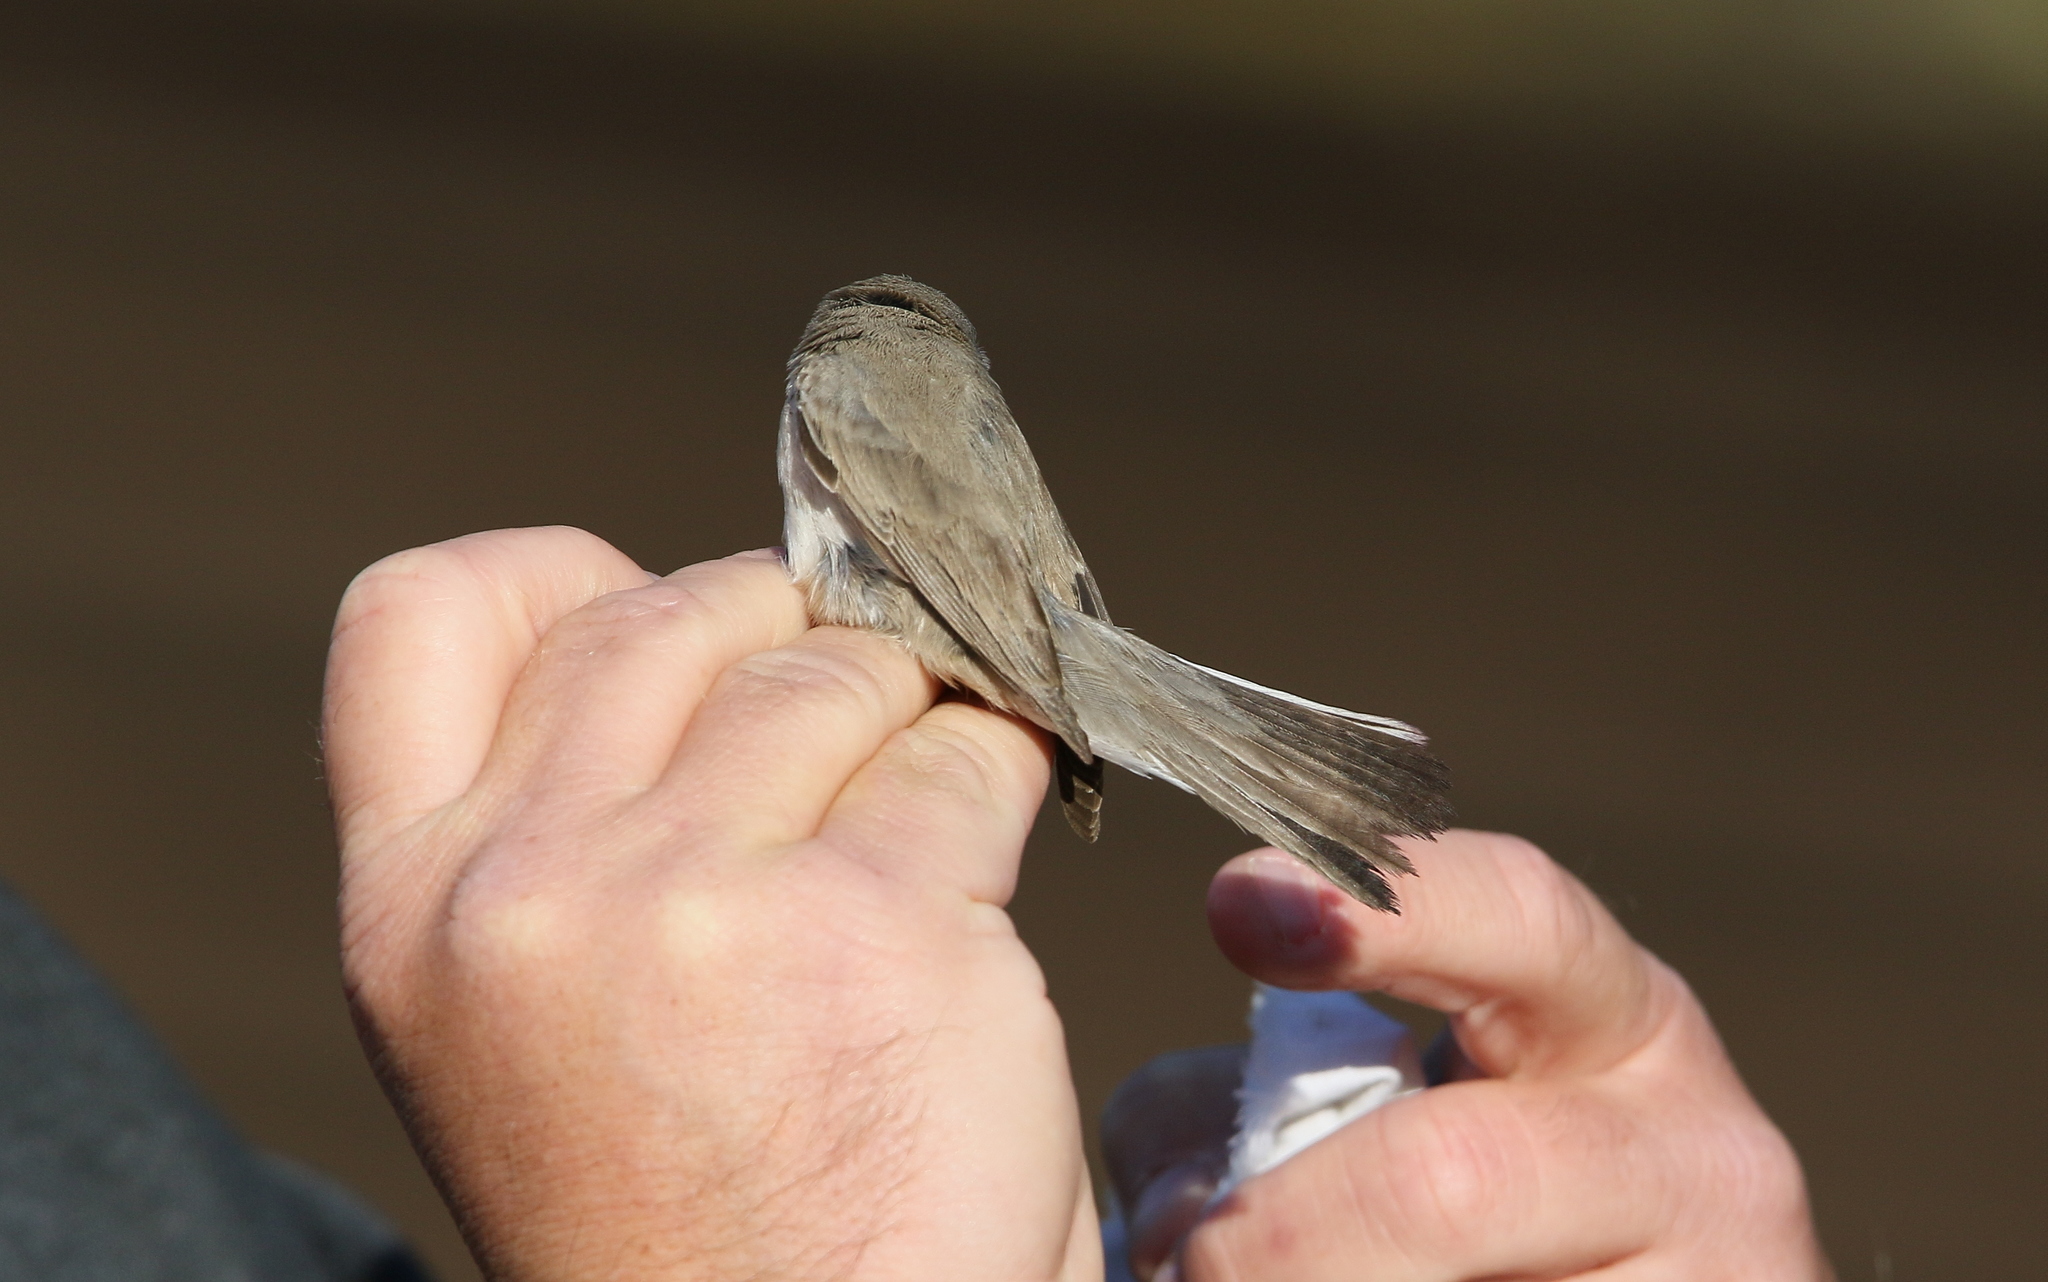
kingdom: Animalia
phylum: Chordata
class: Aves
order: Passeriformes
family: Sylviidae
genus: Sylvia
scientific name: Sylvia curruca
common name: Lesser whitethroat
